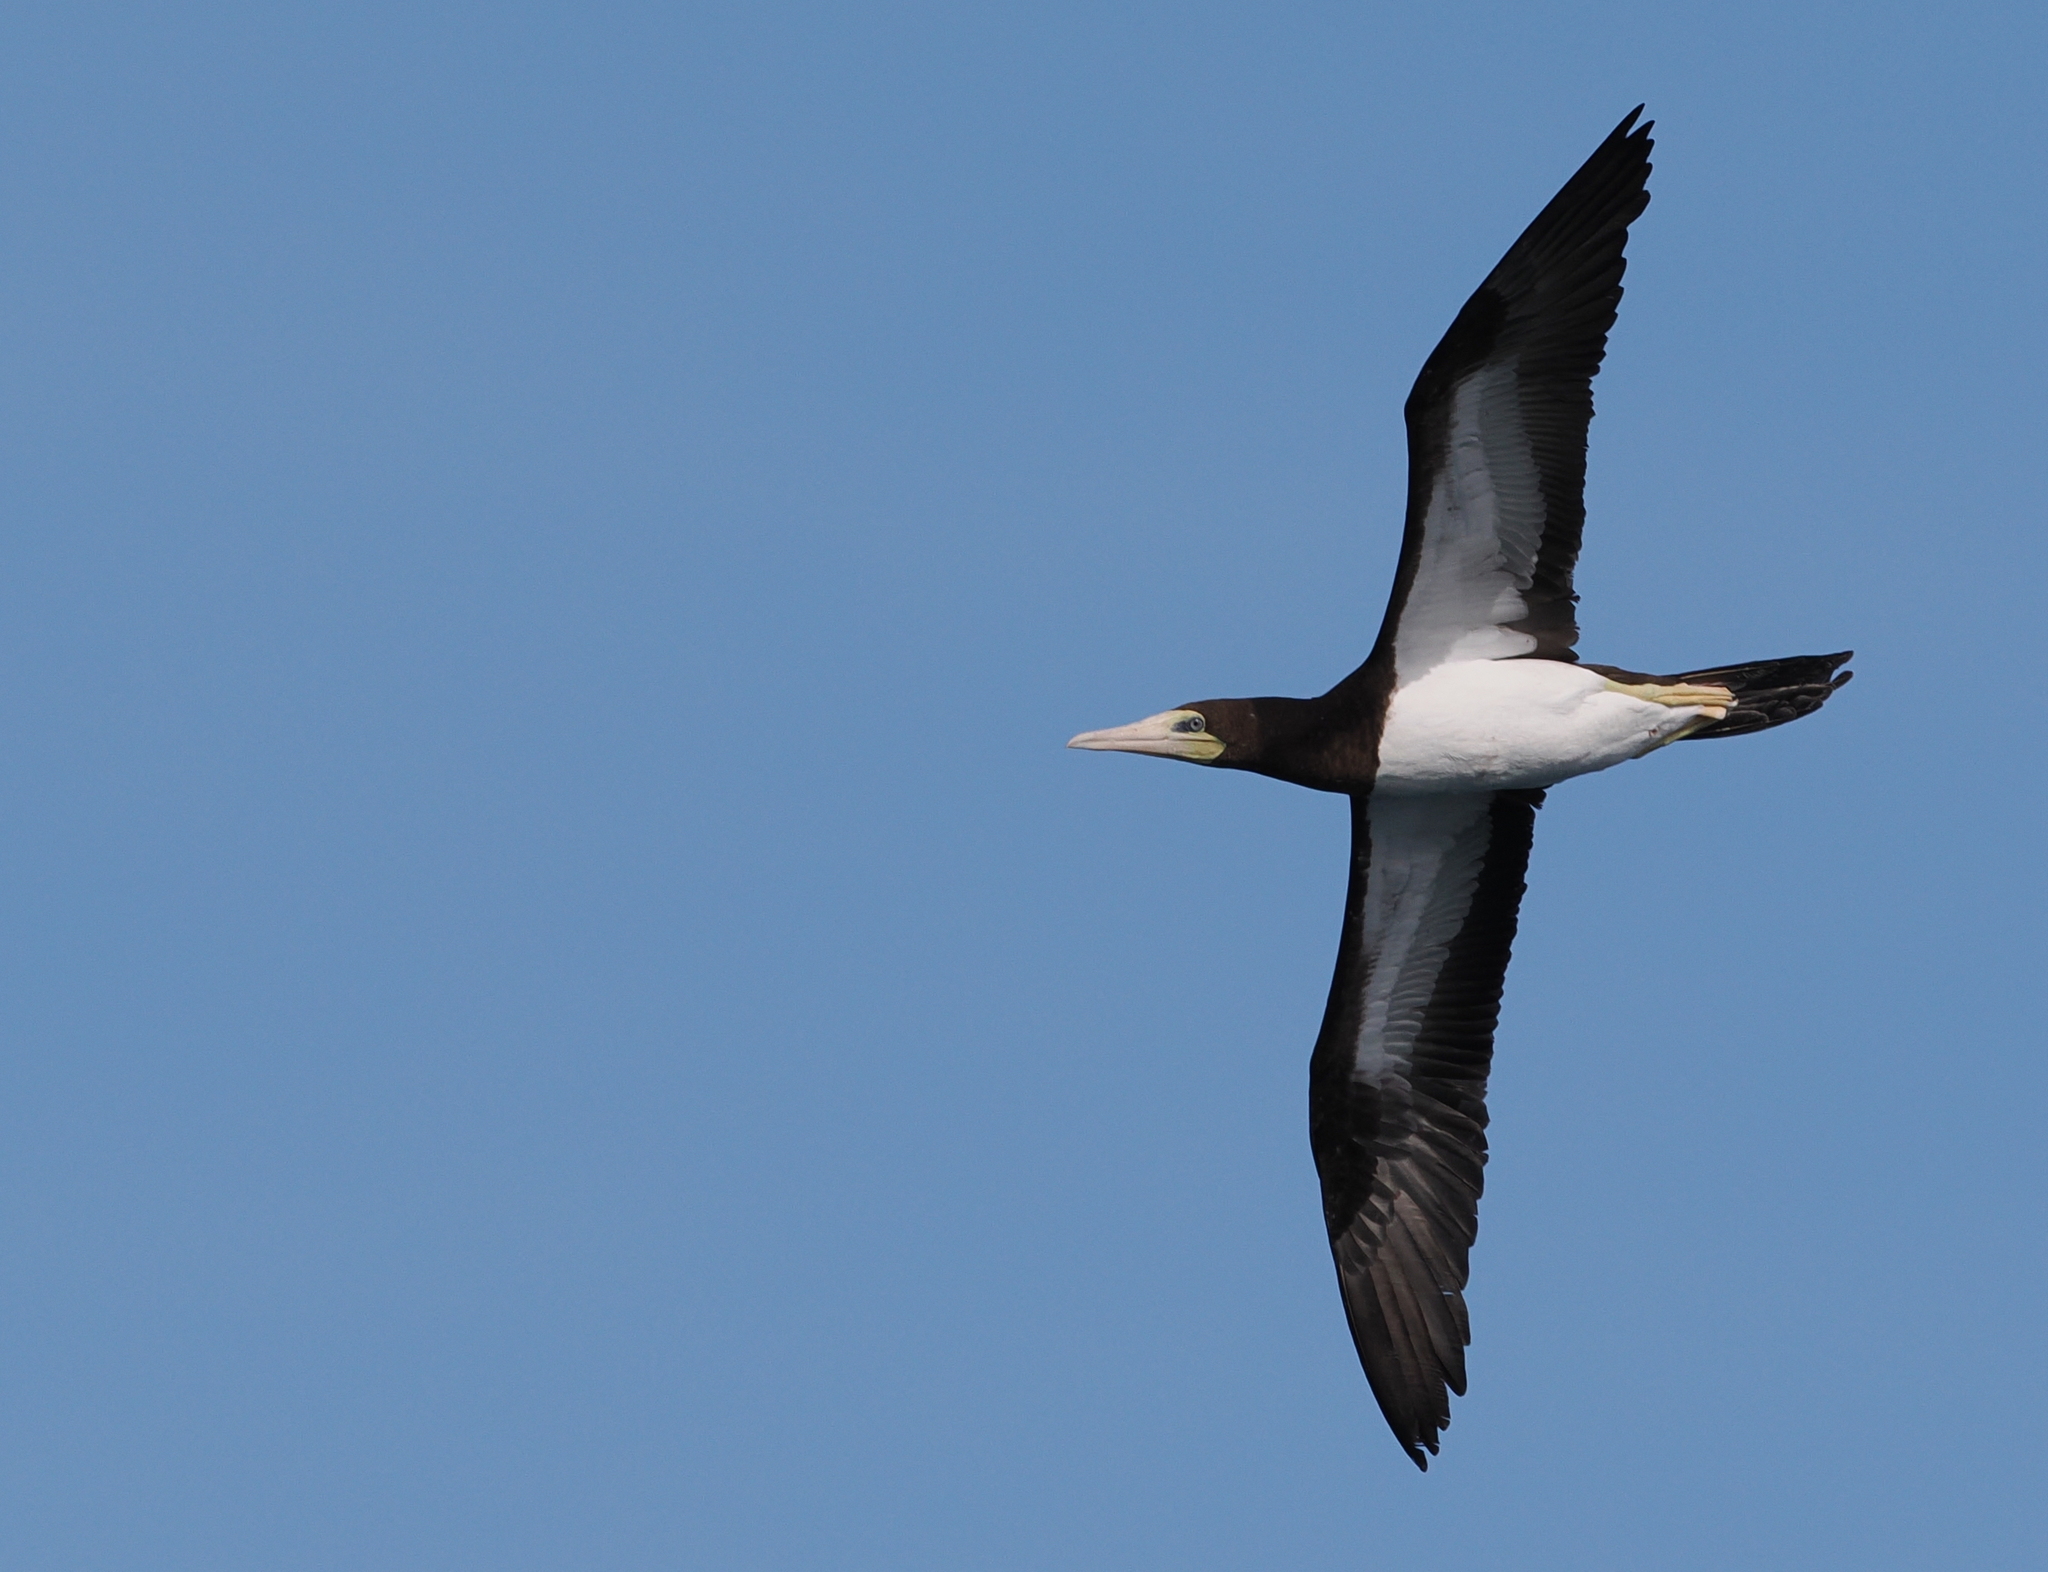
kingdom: Animalia
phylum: Chordata
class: Aves
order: Suliformes
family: Sulidae
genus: Sula
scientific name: Sula leucogaster
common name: Brown booby
